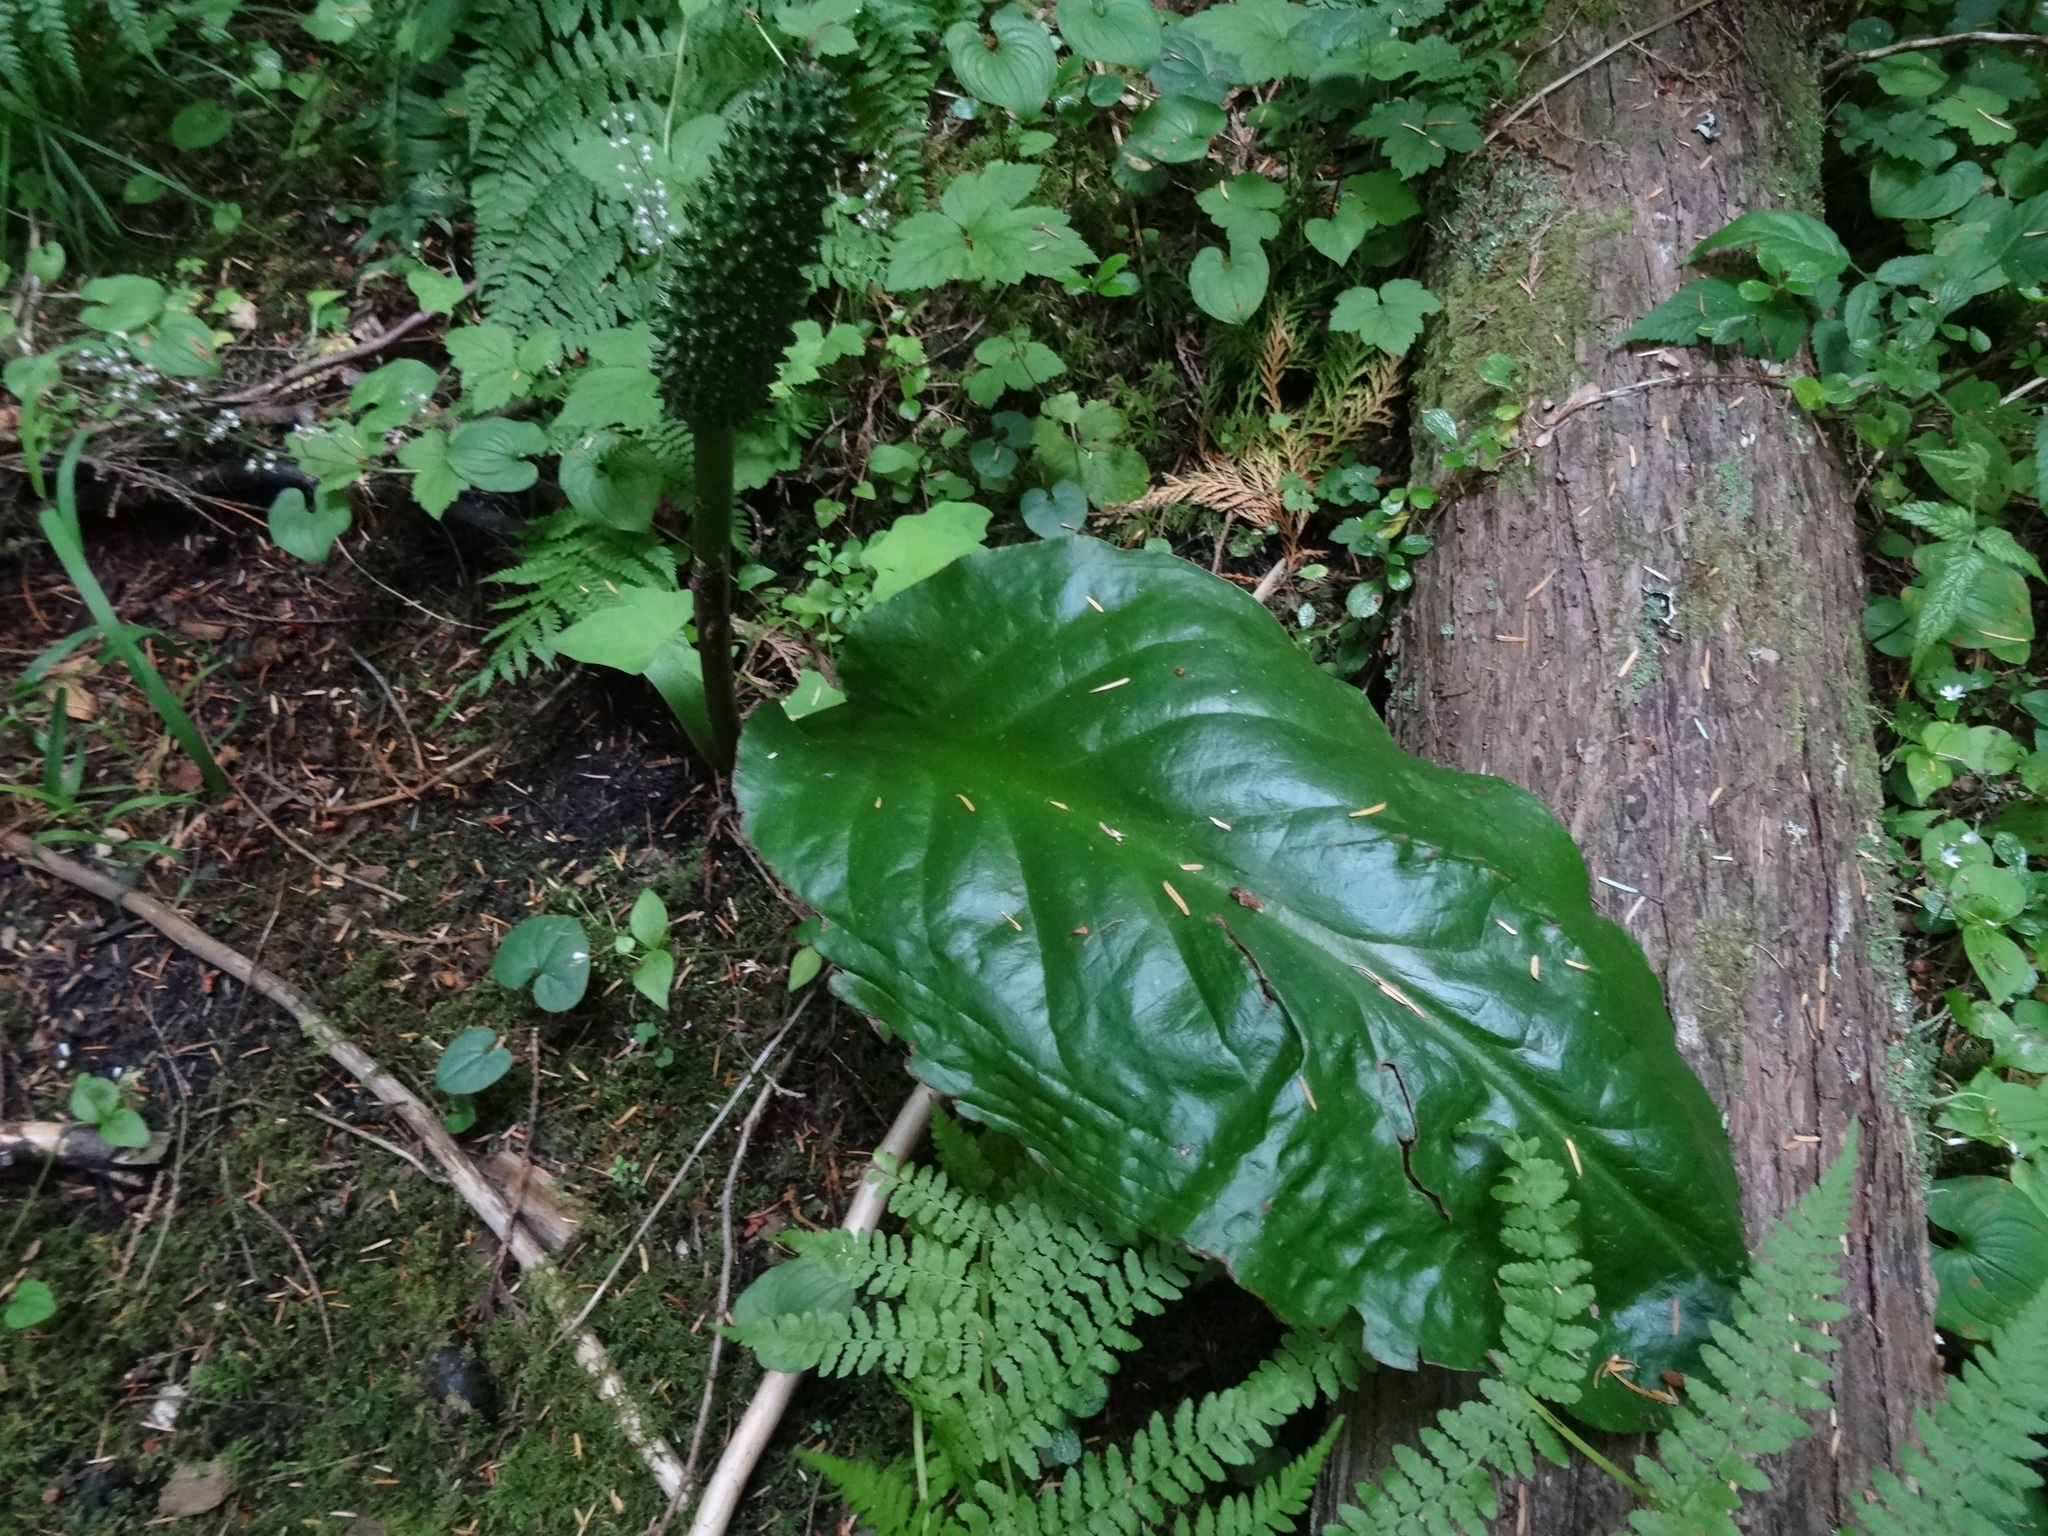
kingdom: Plantae
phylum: Tracheophyta
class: Liliopsida
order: Alismatales
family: Araceae
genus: Lysichiton
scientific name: Lysichiton americanus
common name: American skunk cabbage
